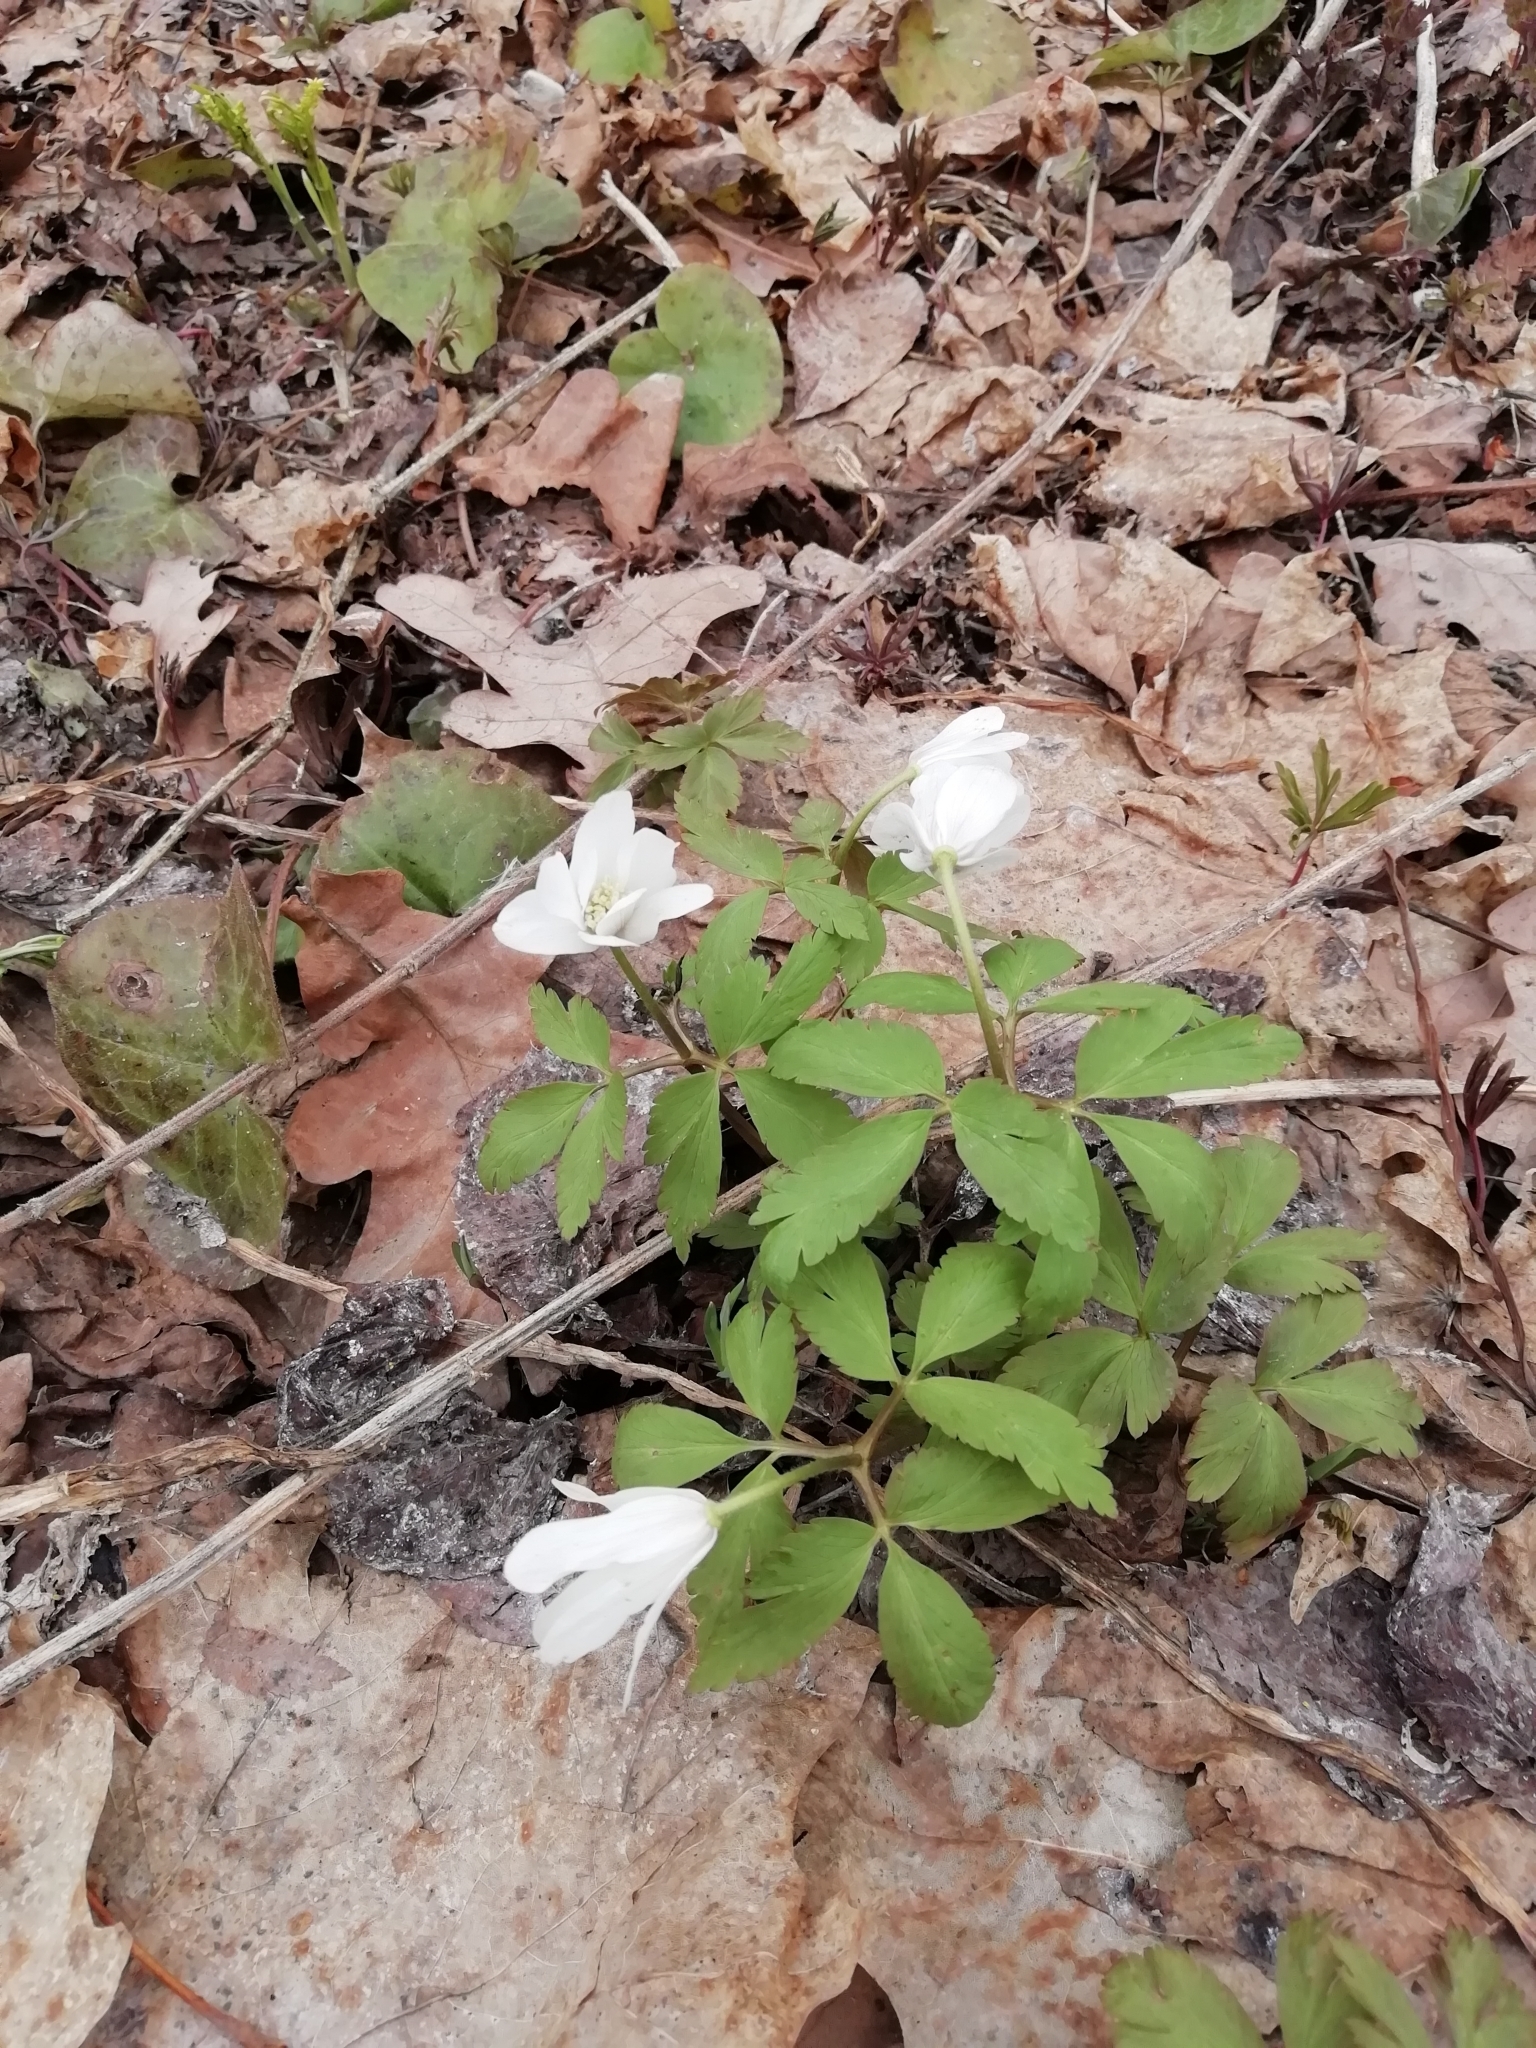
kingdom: Plantae
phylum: Tracheophyta
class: Magnoliopsida
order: Ranunculales
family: Ranunculaceae
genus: Anemone
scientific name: Anemone altaica
